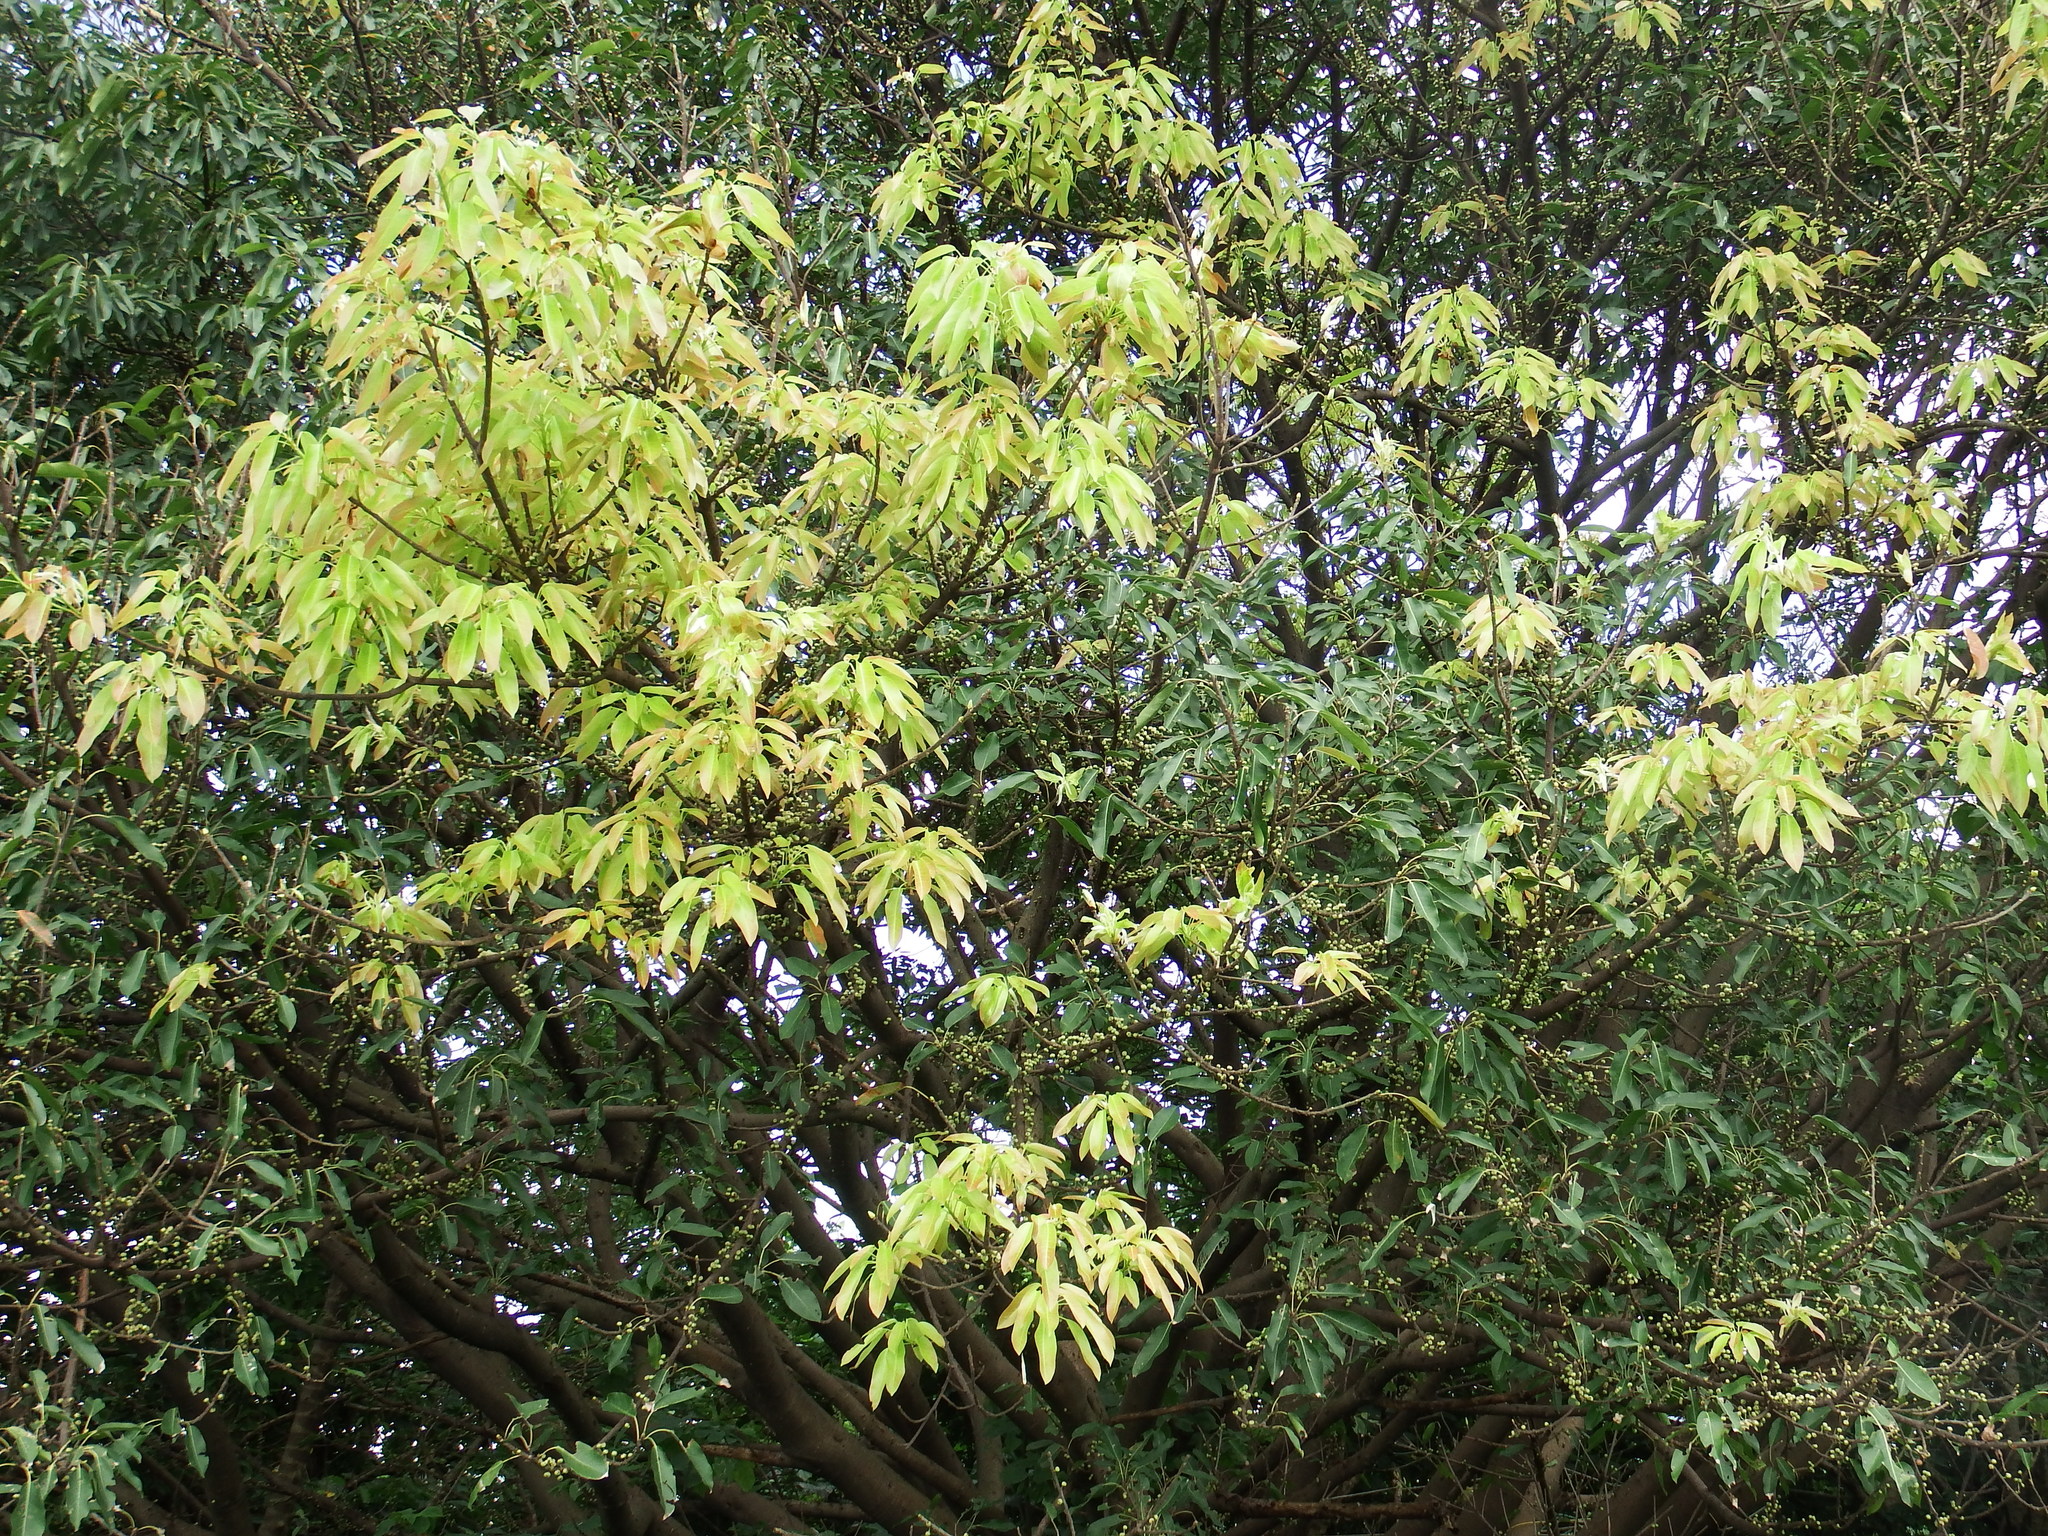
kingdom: Plantae
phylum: Tracheophyta
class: Magnoliopsida
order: Rosales
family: Moraceae
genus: Ficus
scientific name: Ficus subpisocarpa
